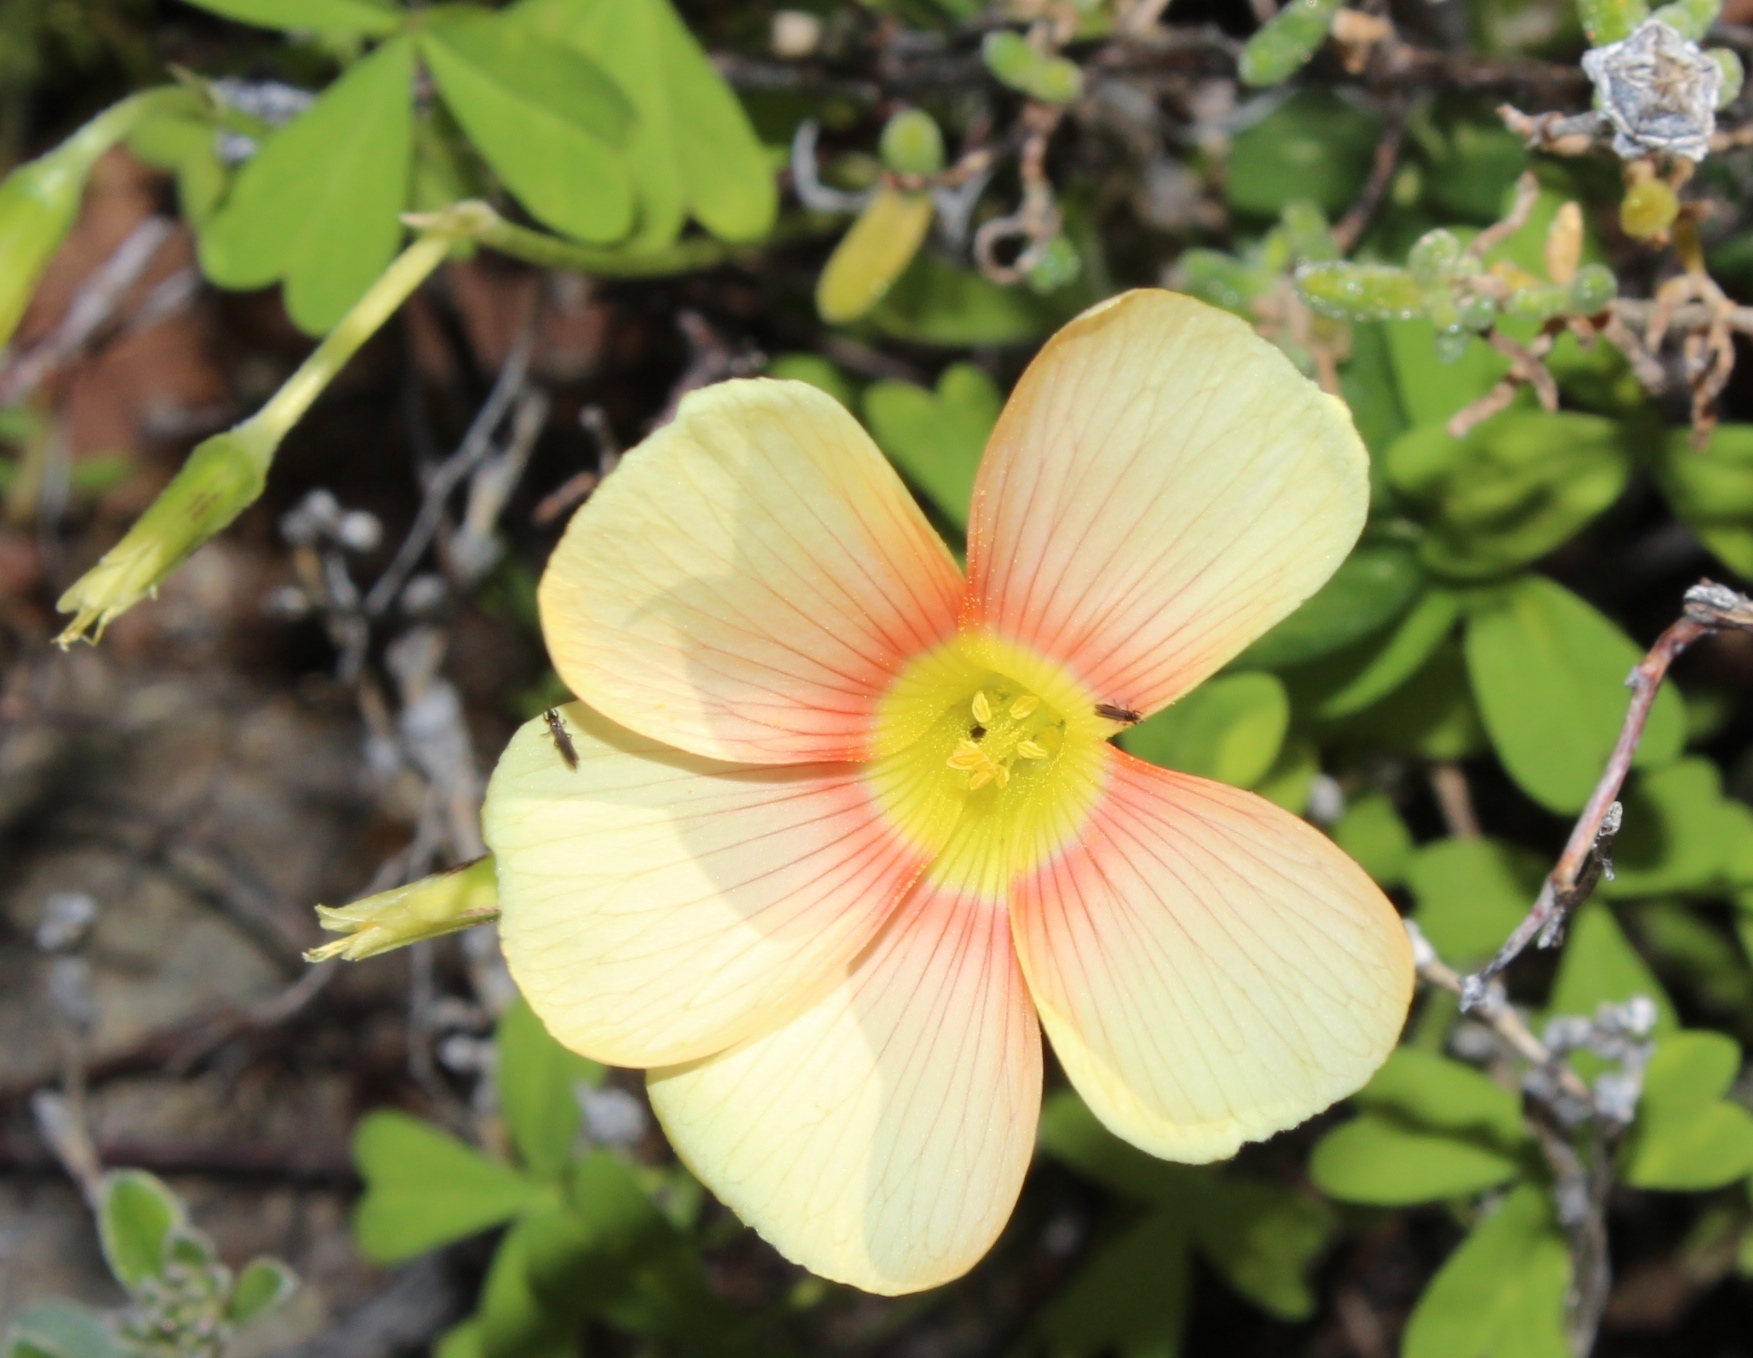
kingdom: Plantae
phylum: Tracheophyta
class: Magnoliopsida
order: Oxalidales
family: Oxalidaceae
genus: Oxalis
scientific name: Oxalis obtusa
